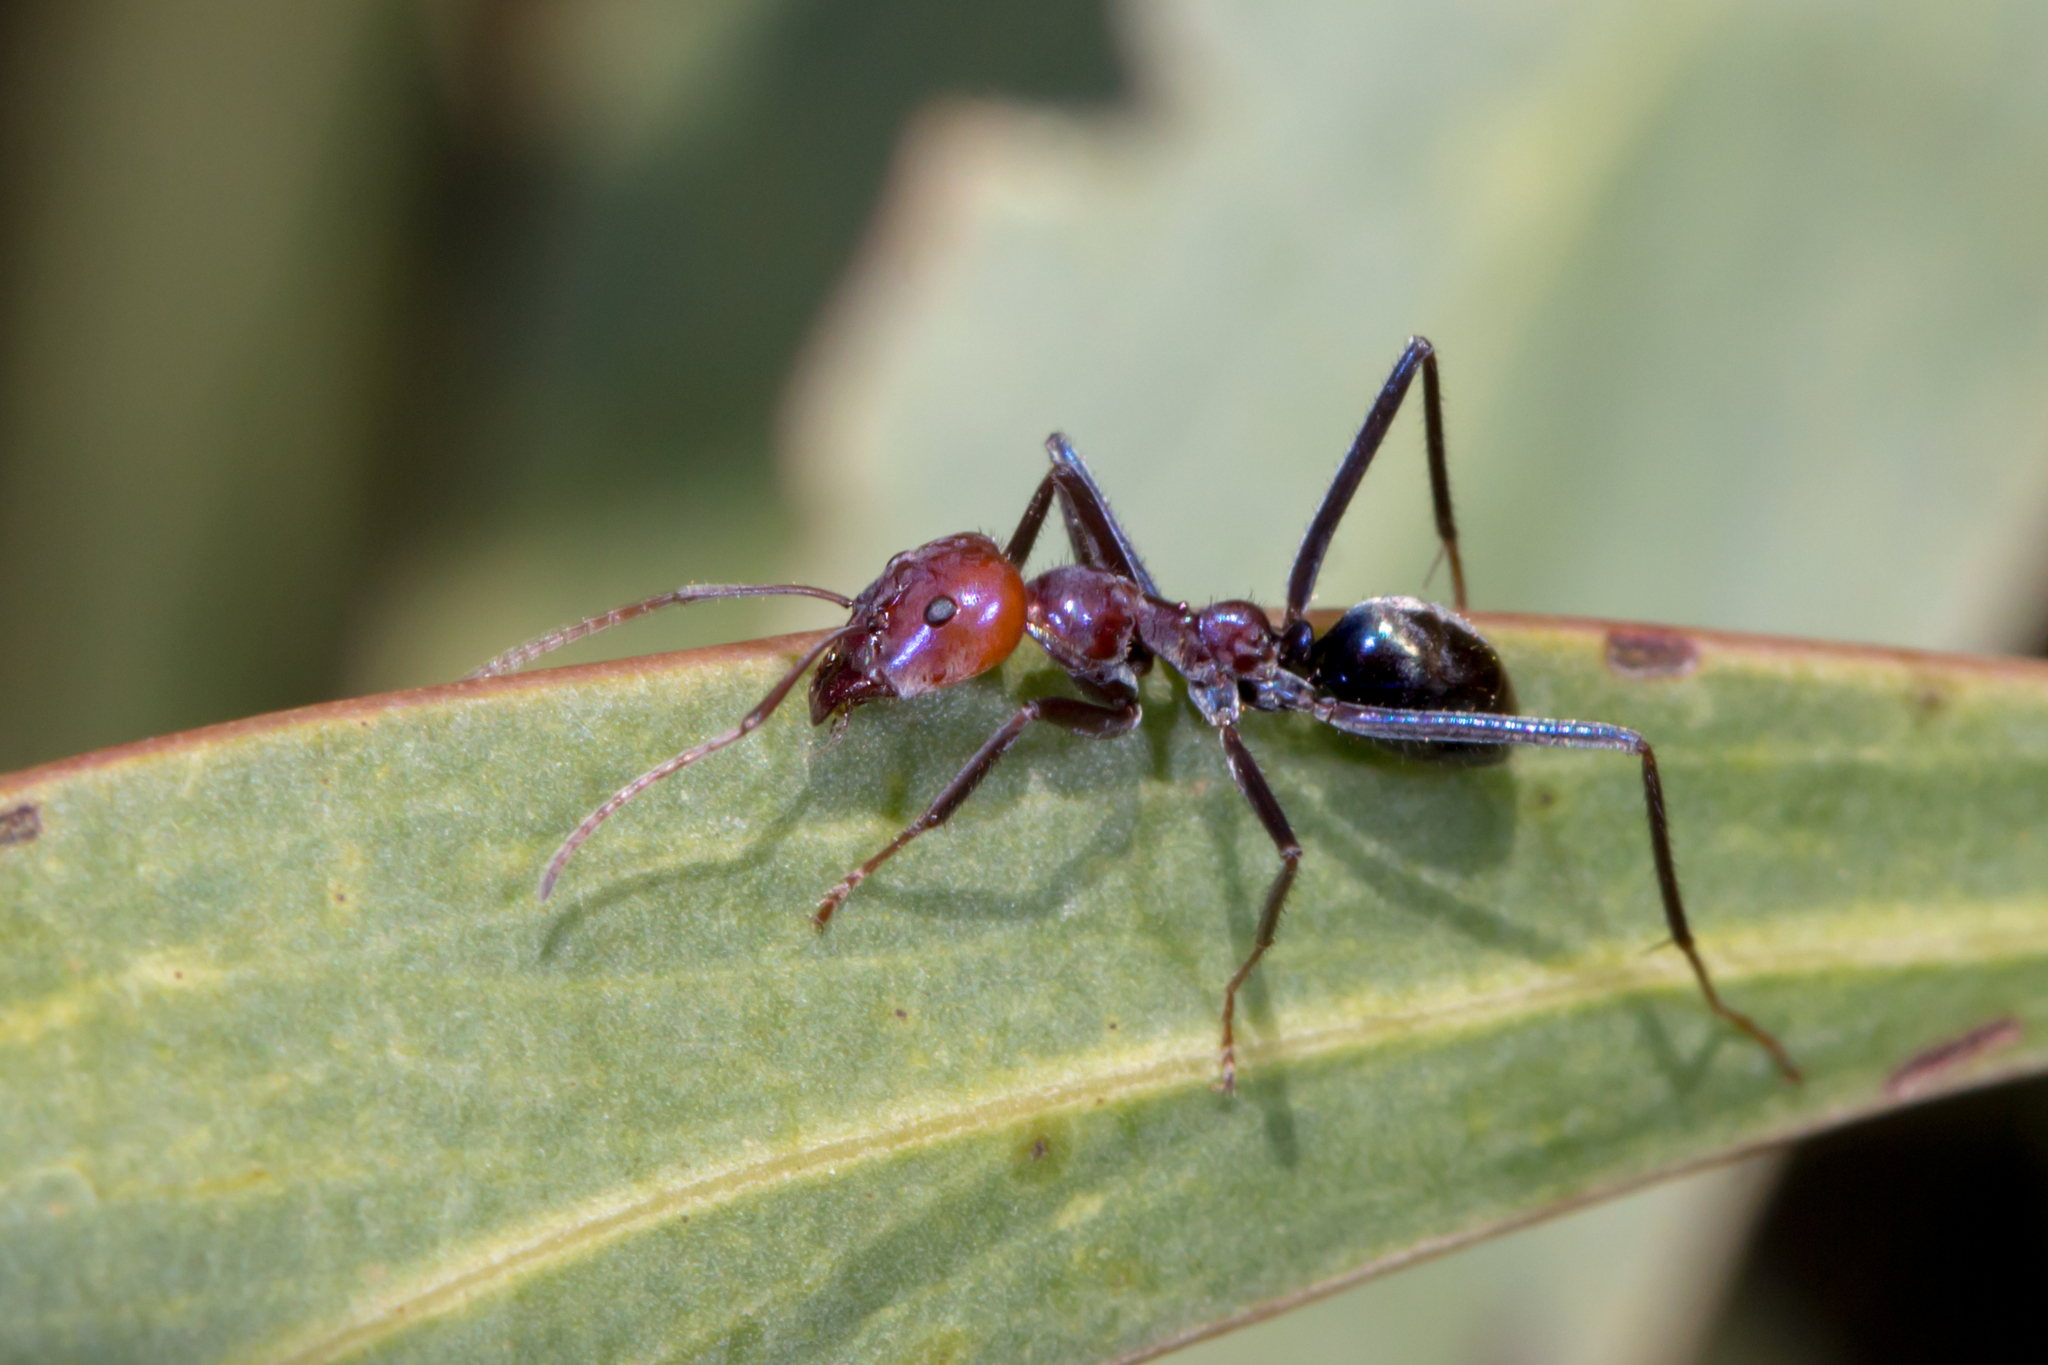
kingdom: Animalia
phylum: Arthropoda
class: Insecta
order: Hymenoptera
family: Formicidae
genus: Iridomyrmex
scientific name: Iridomyrmex purpureus
